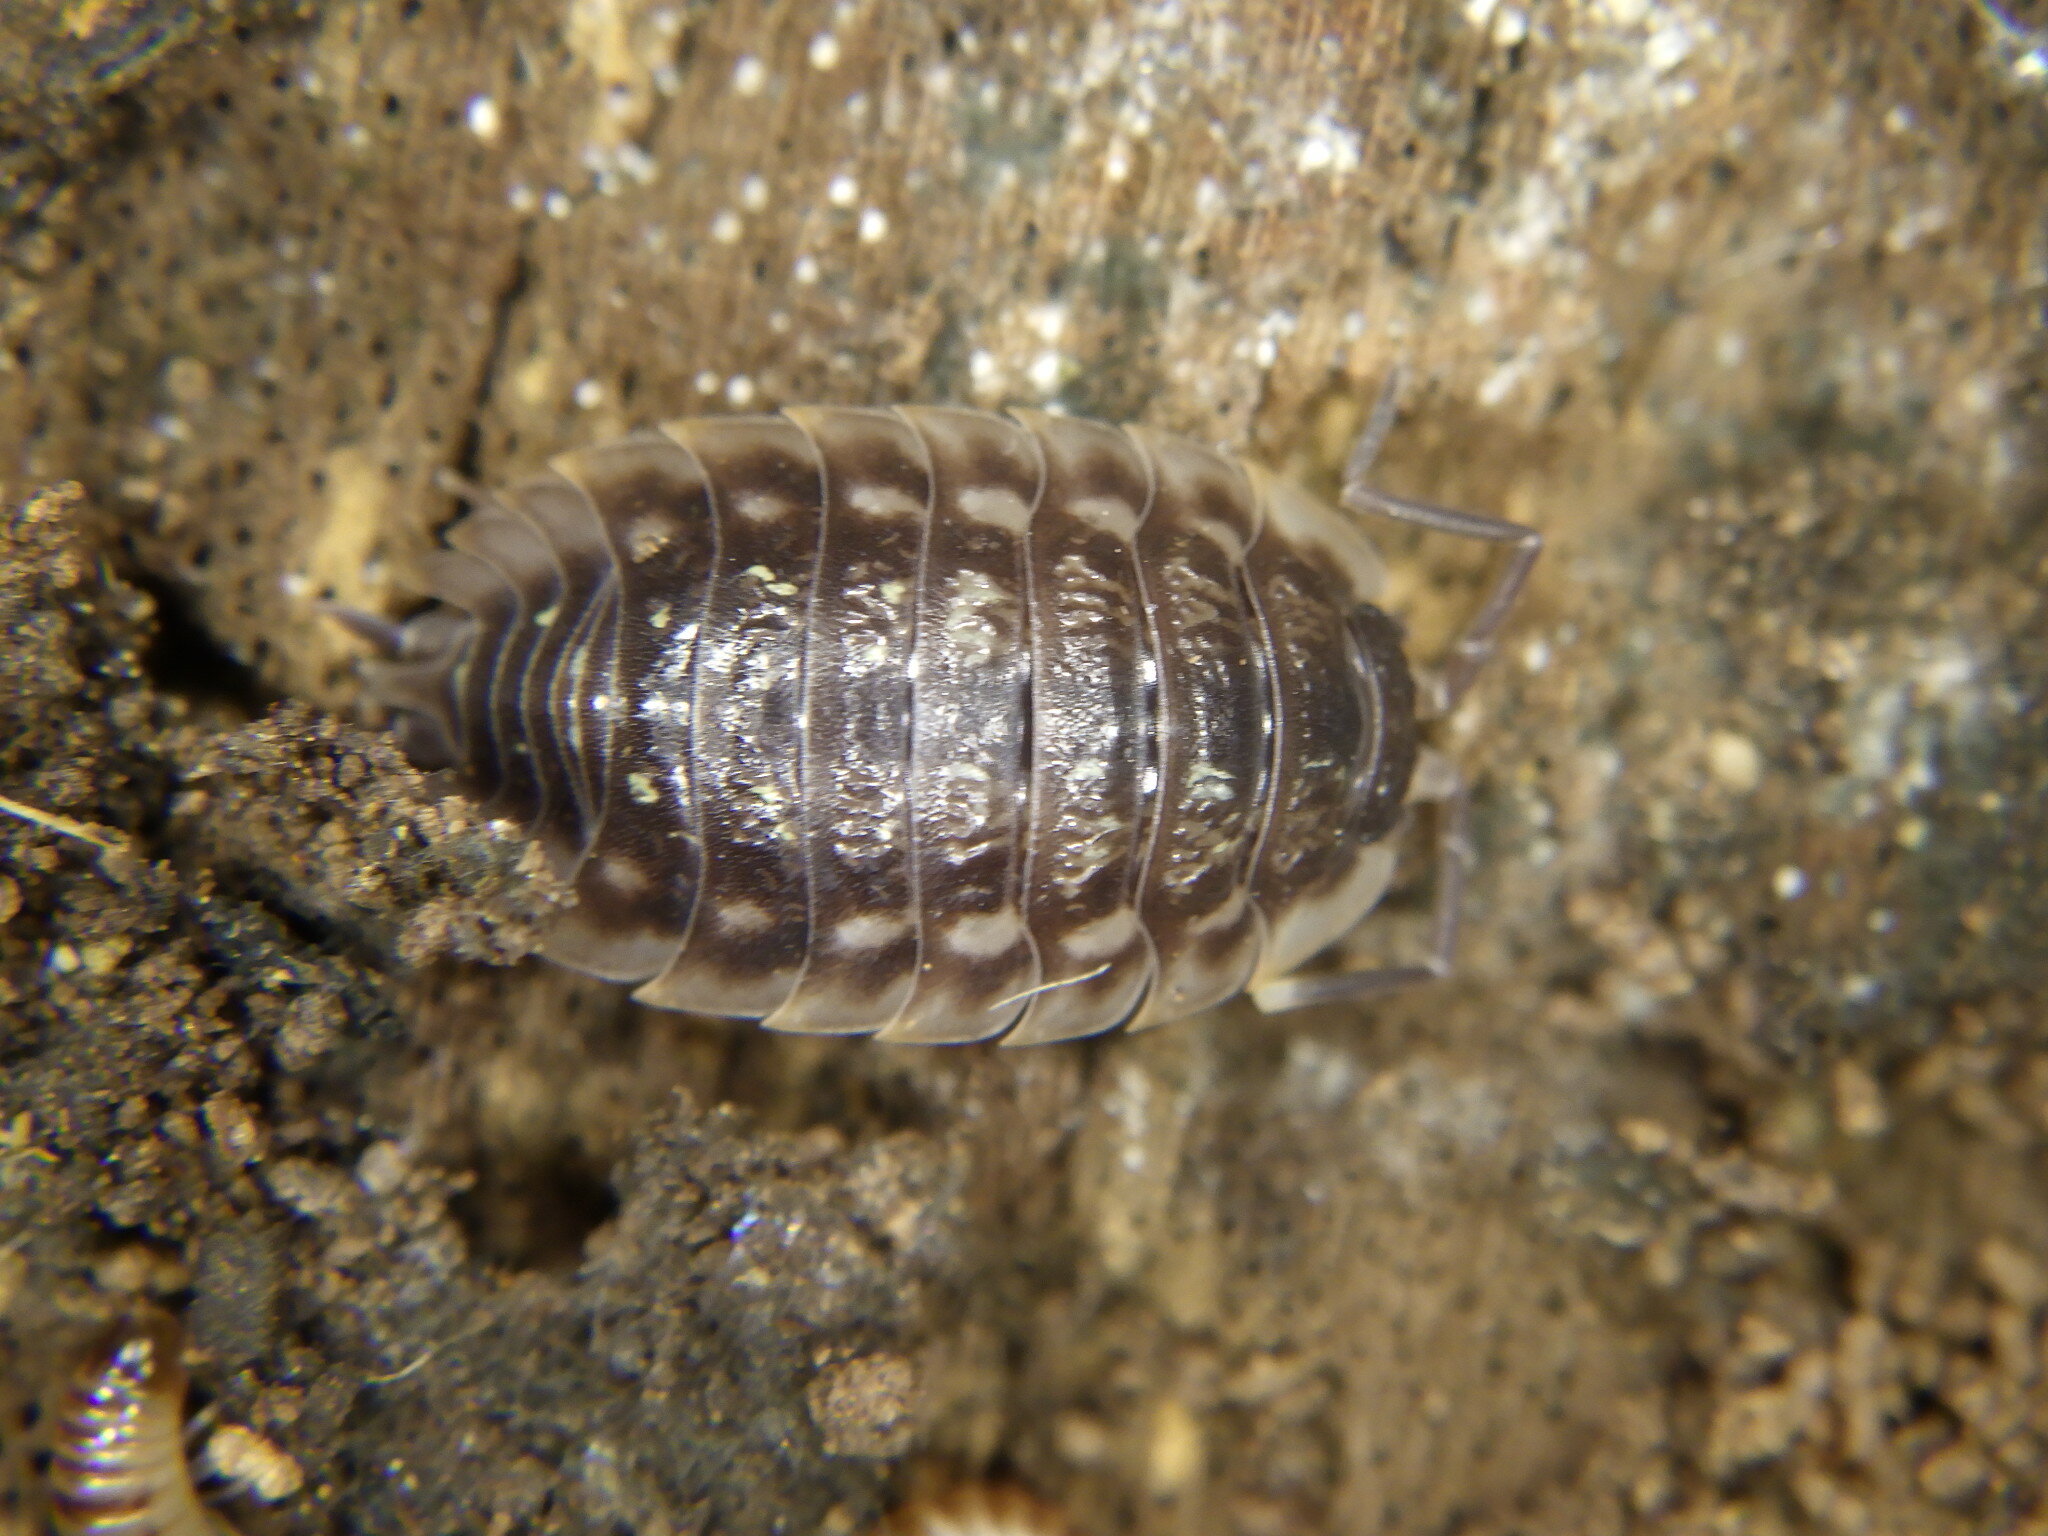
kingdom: Animalia
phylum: Arthropoda
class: Malacostraca
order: Isopoda
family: Oniscidae
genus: Oniscus
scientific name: Oniscus asellus
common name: Common shiny woodlouse
